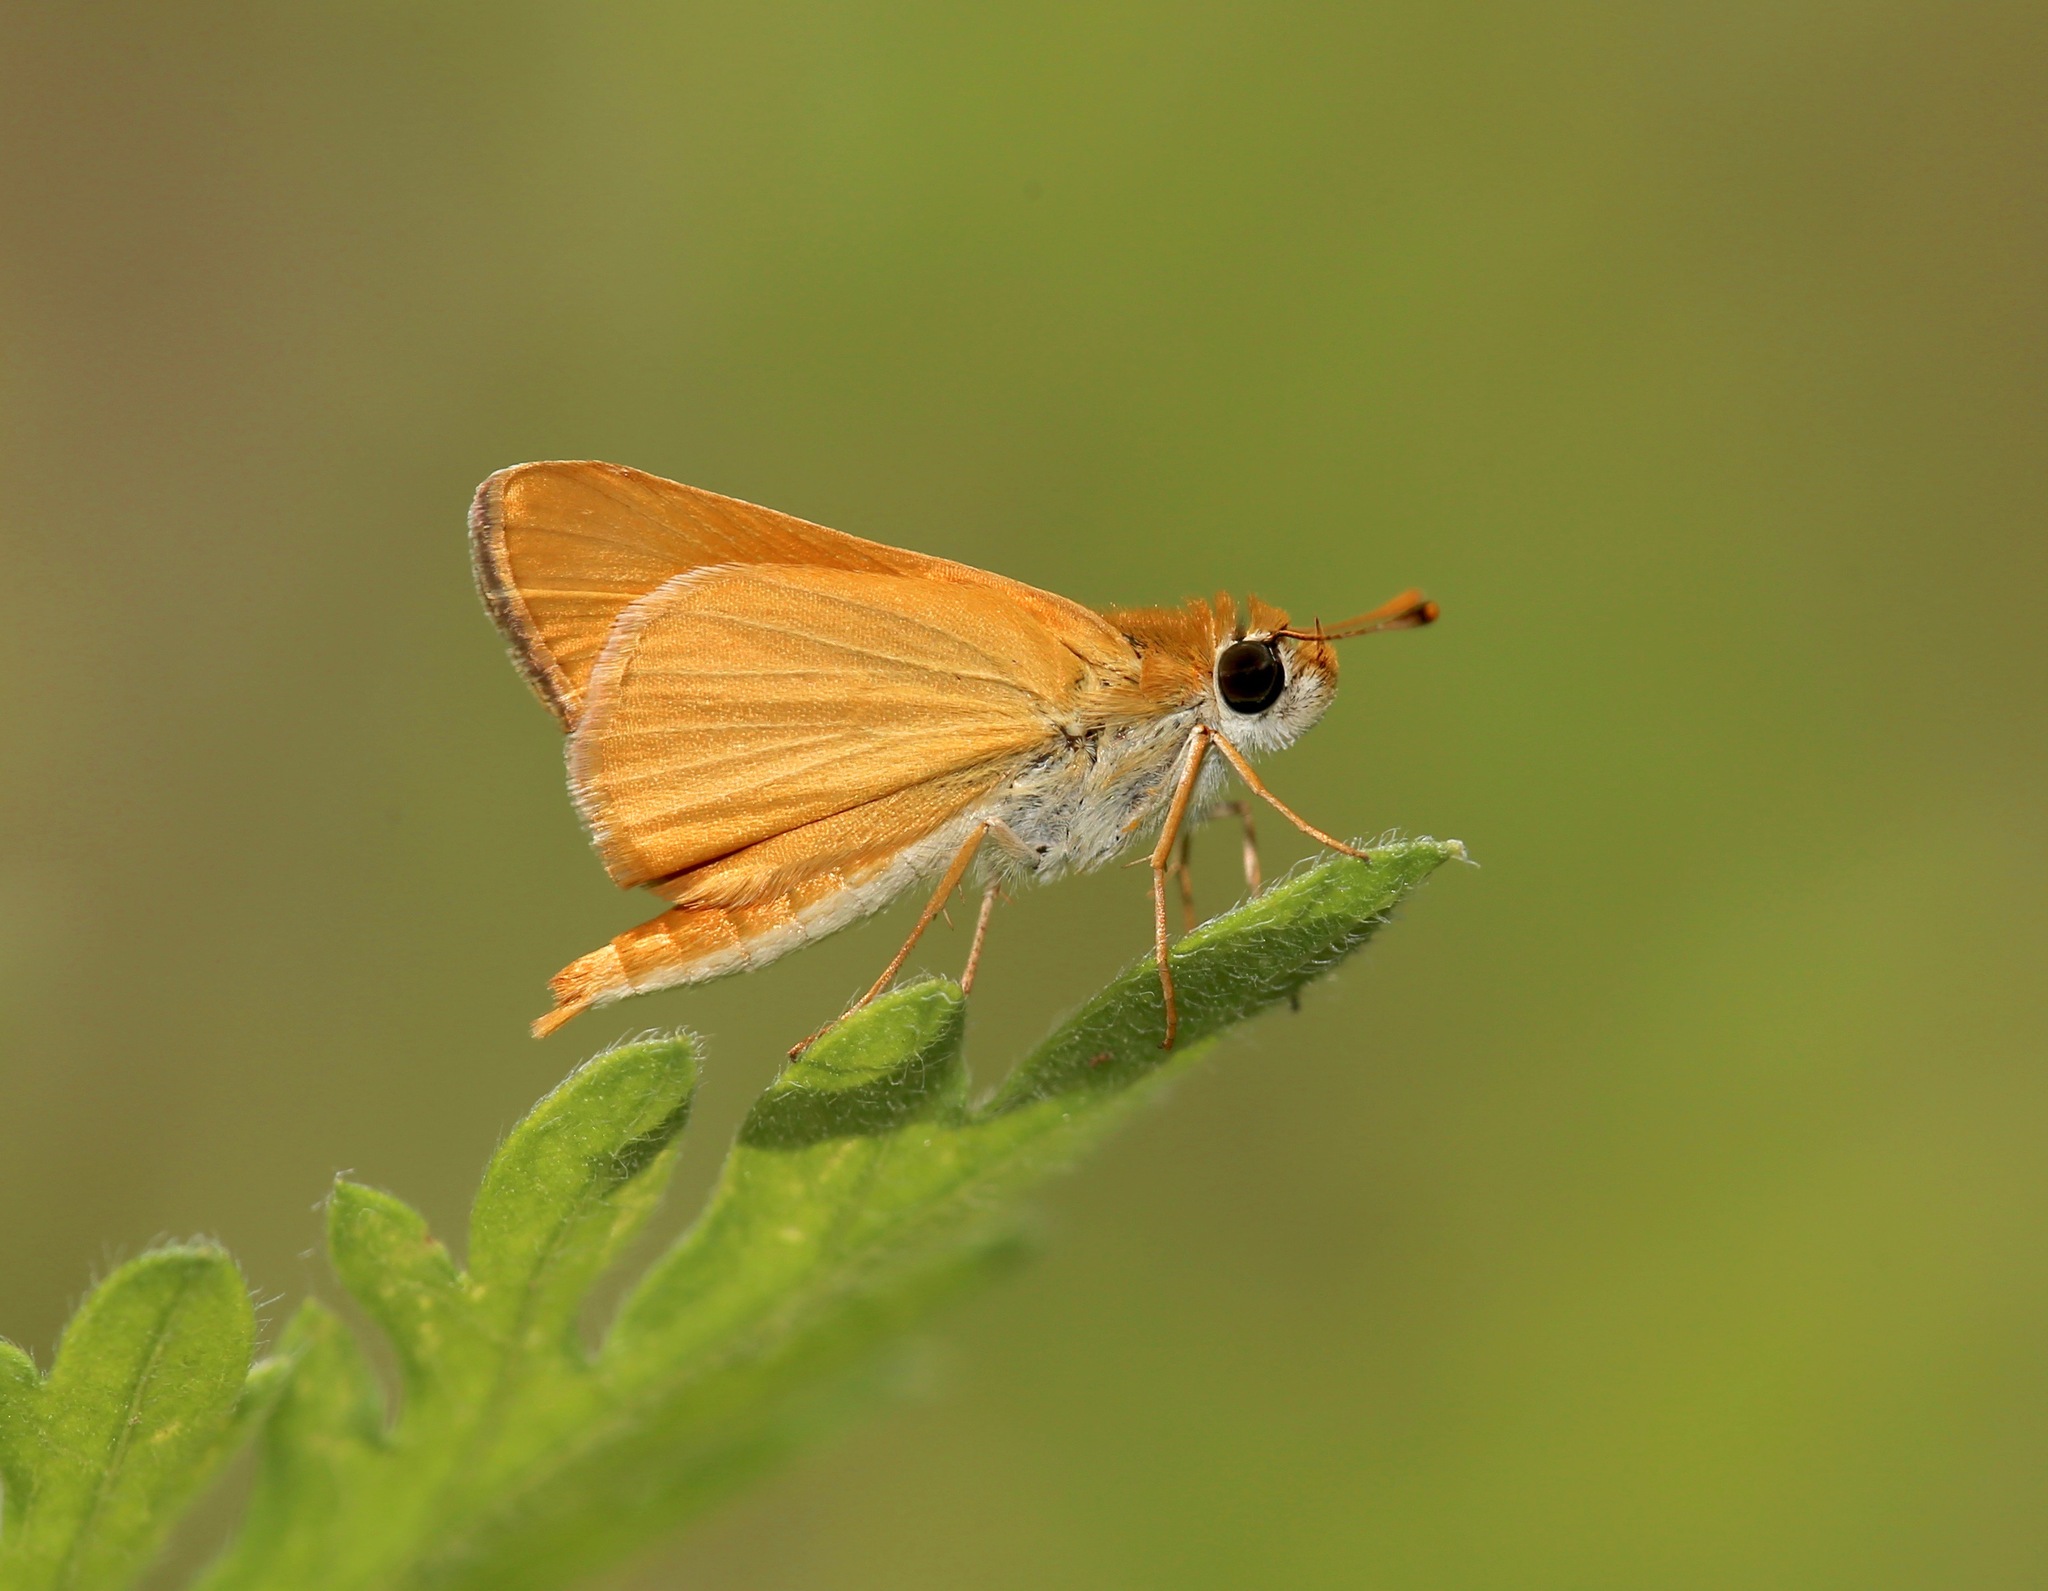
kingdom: Animalia
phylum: Arthropoda
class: Insecta
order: Lepidoptera
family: Hesperiidae
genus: Copaeodes
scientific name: Copaeodes aurantiaca
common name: Orange skipperling
